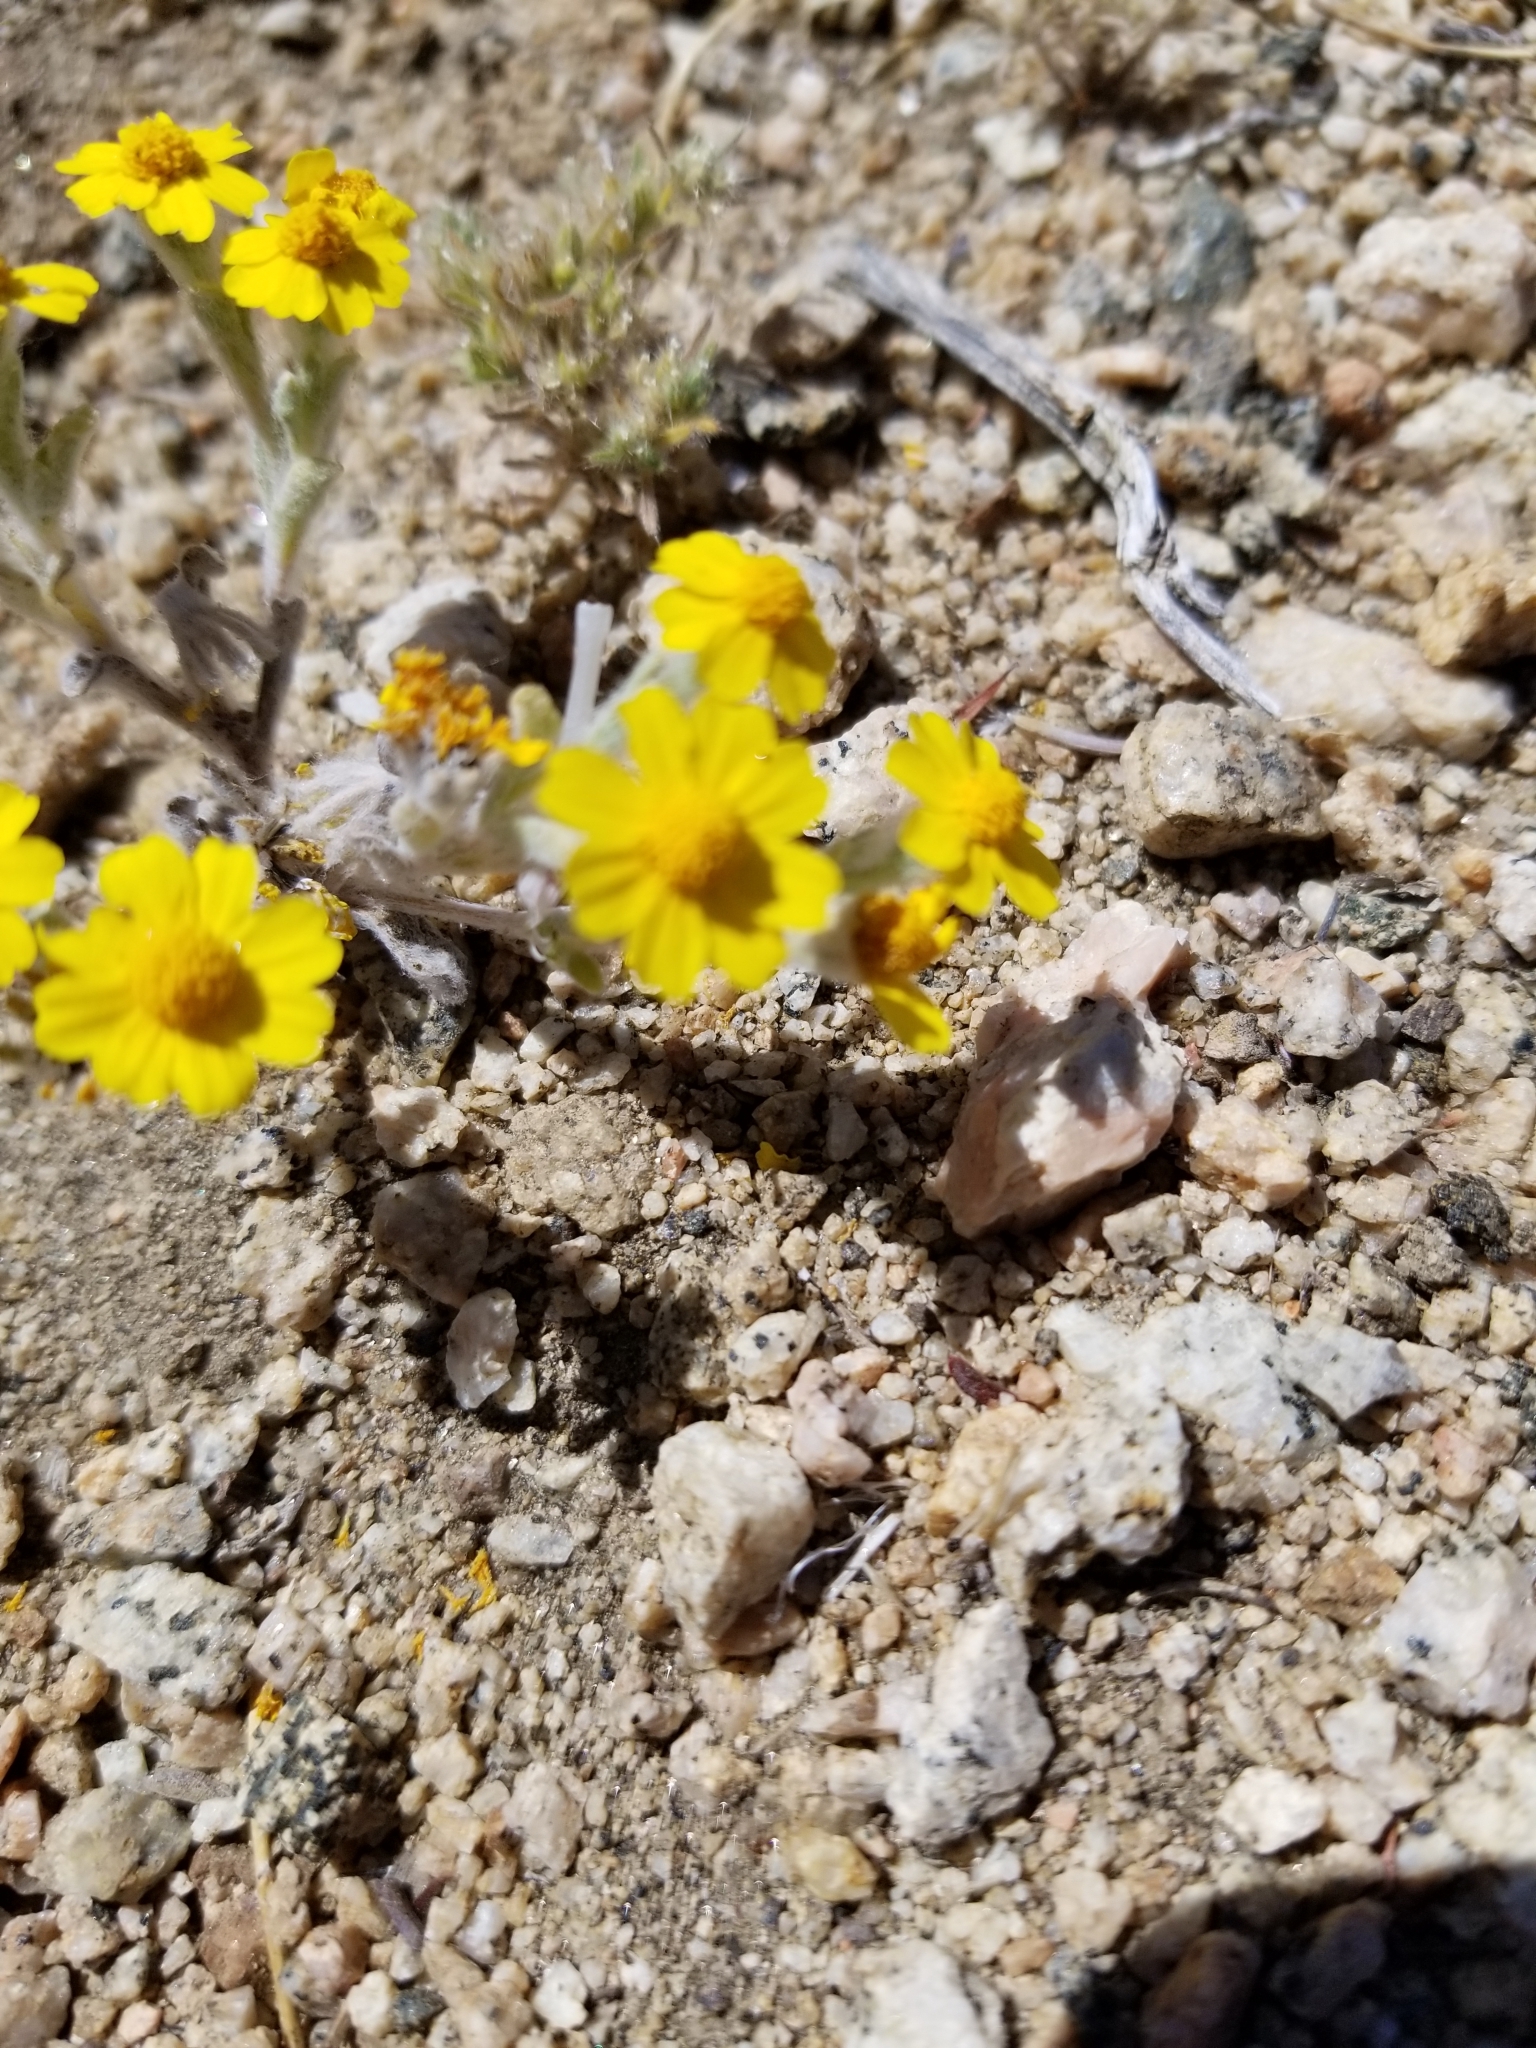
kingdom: Plantae
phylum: Tracheophyta
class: Magnoliopsida
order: Asterales
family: Asteraceae
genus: Eriophyllum
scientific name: Eriophyllum wallacei
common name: Wallace's woolly daisy
